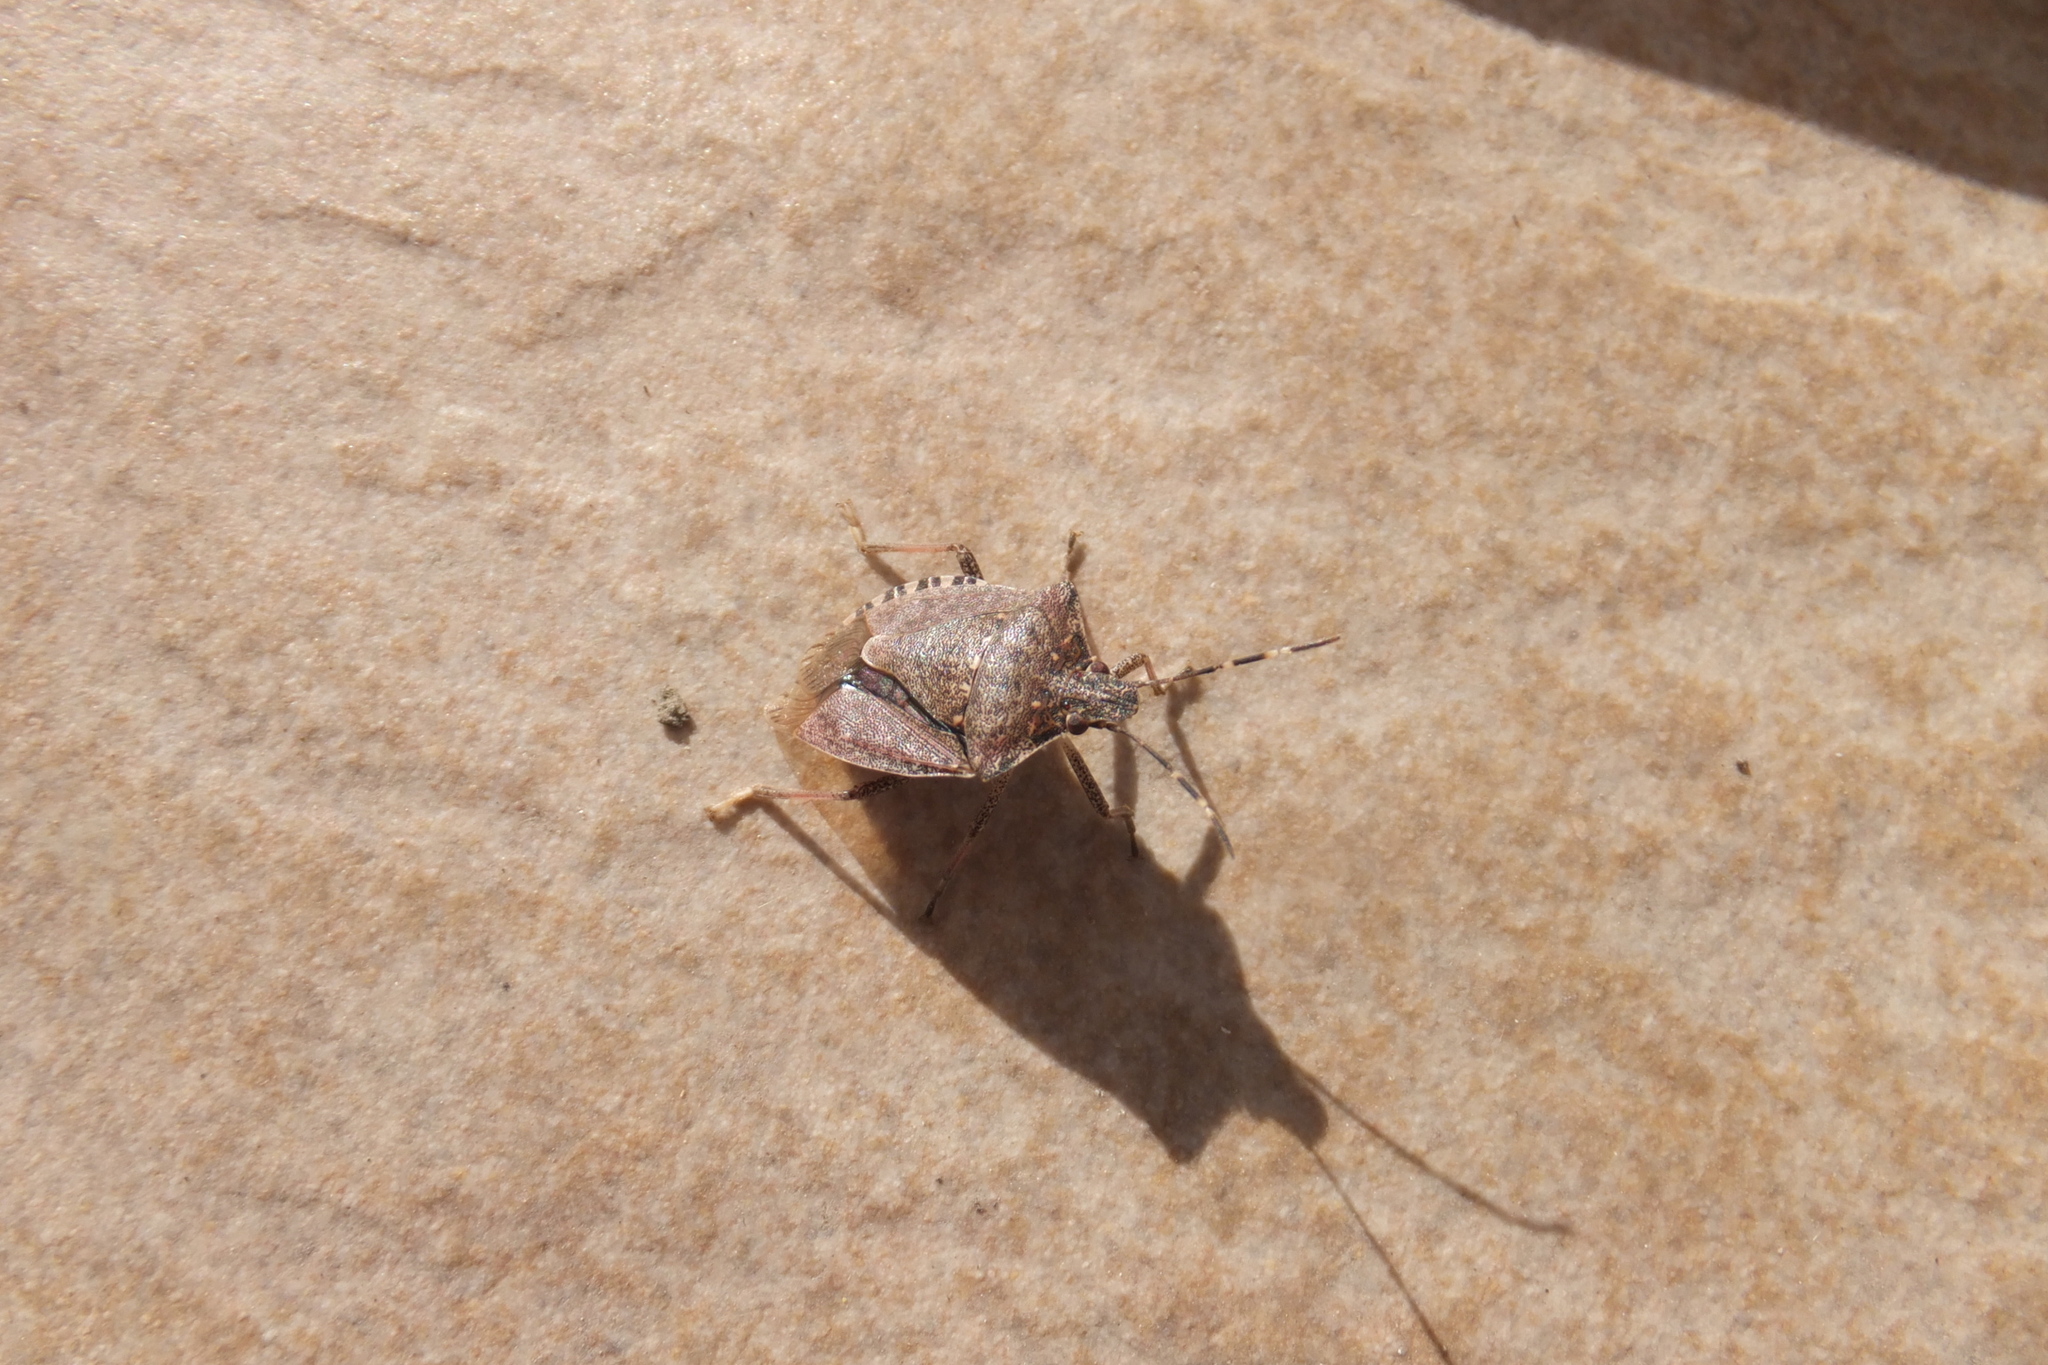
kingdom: Animalia
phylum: Arthropoda
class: Insecta
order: Hemiptera
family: Pentatomidae
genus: Halyomorpha
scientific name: Halyomorpha halys
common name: Brown marmorated stink bug
